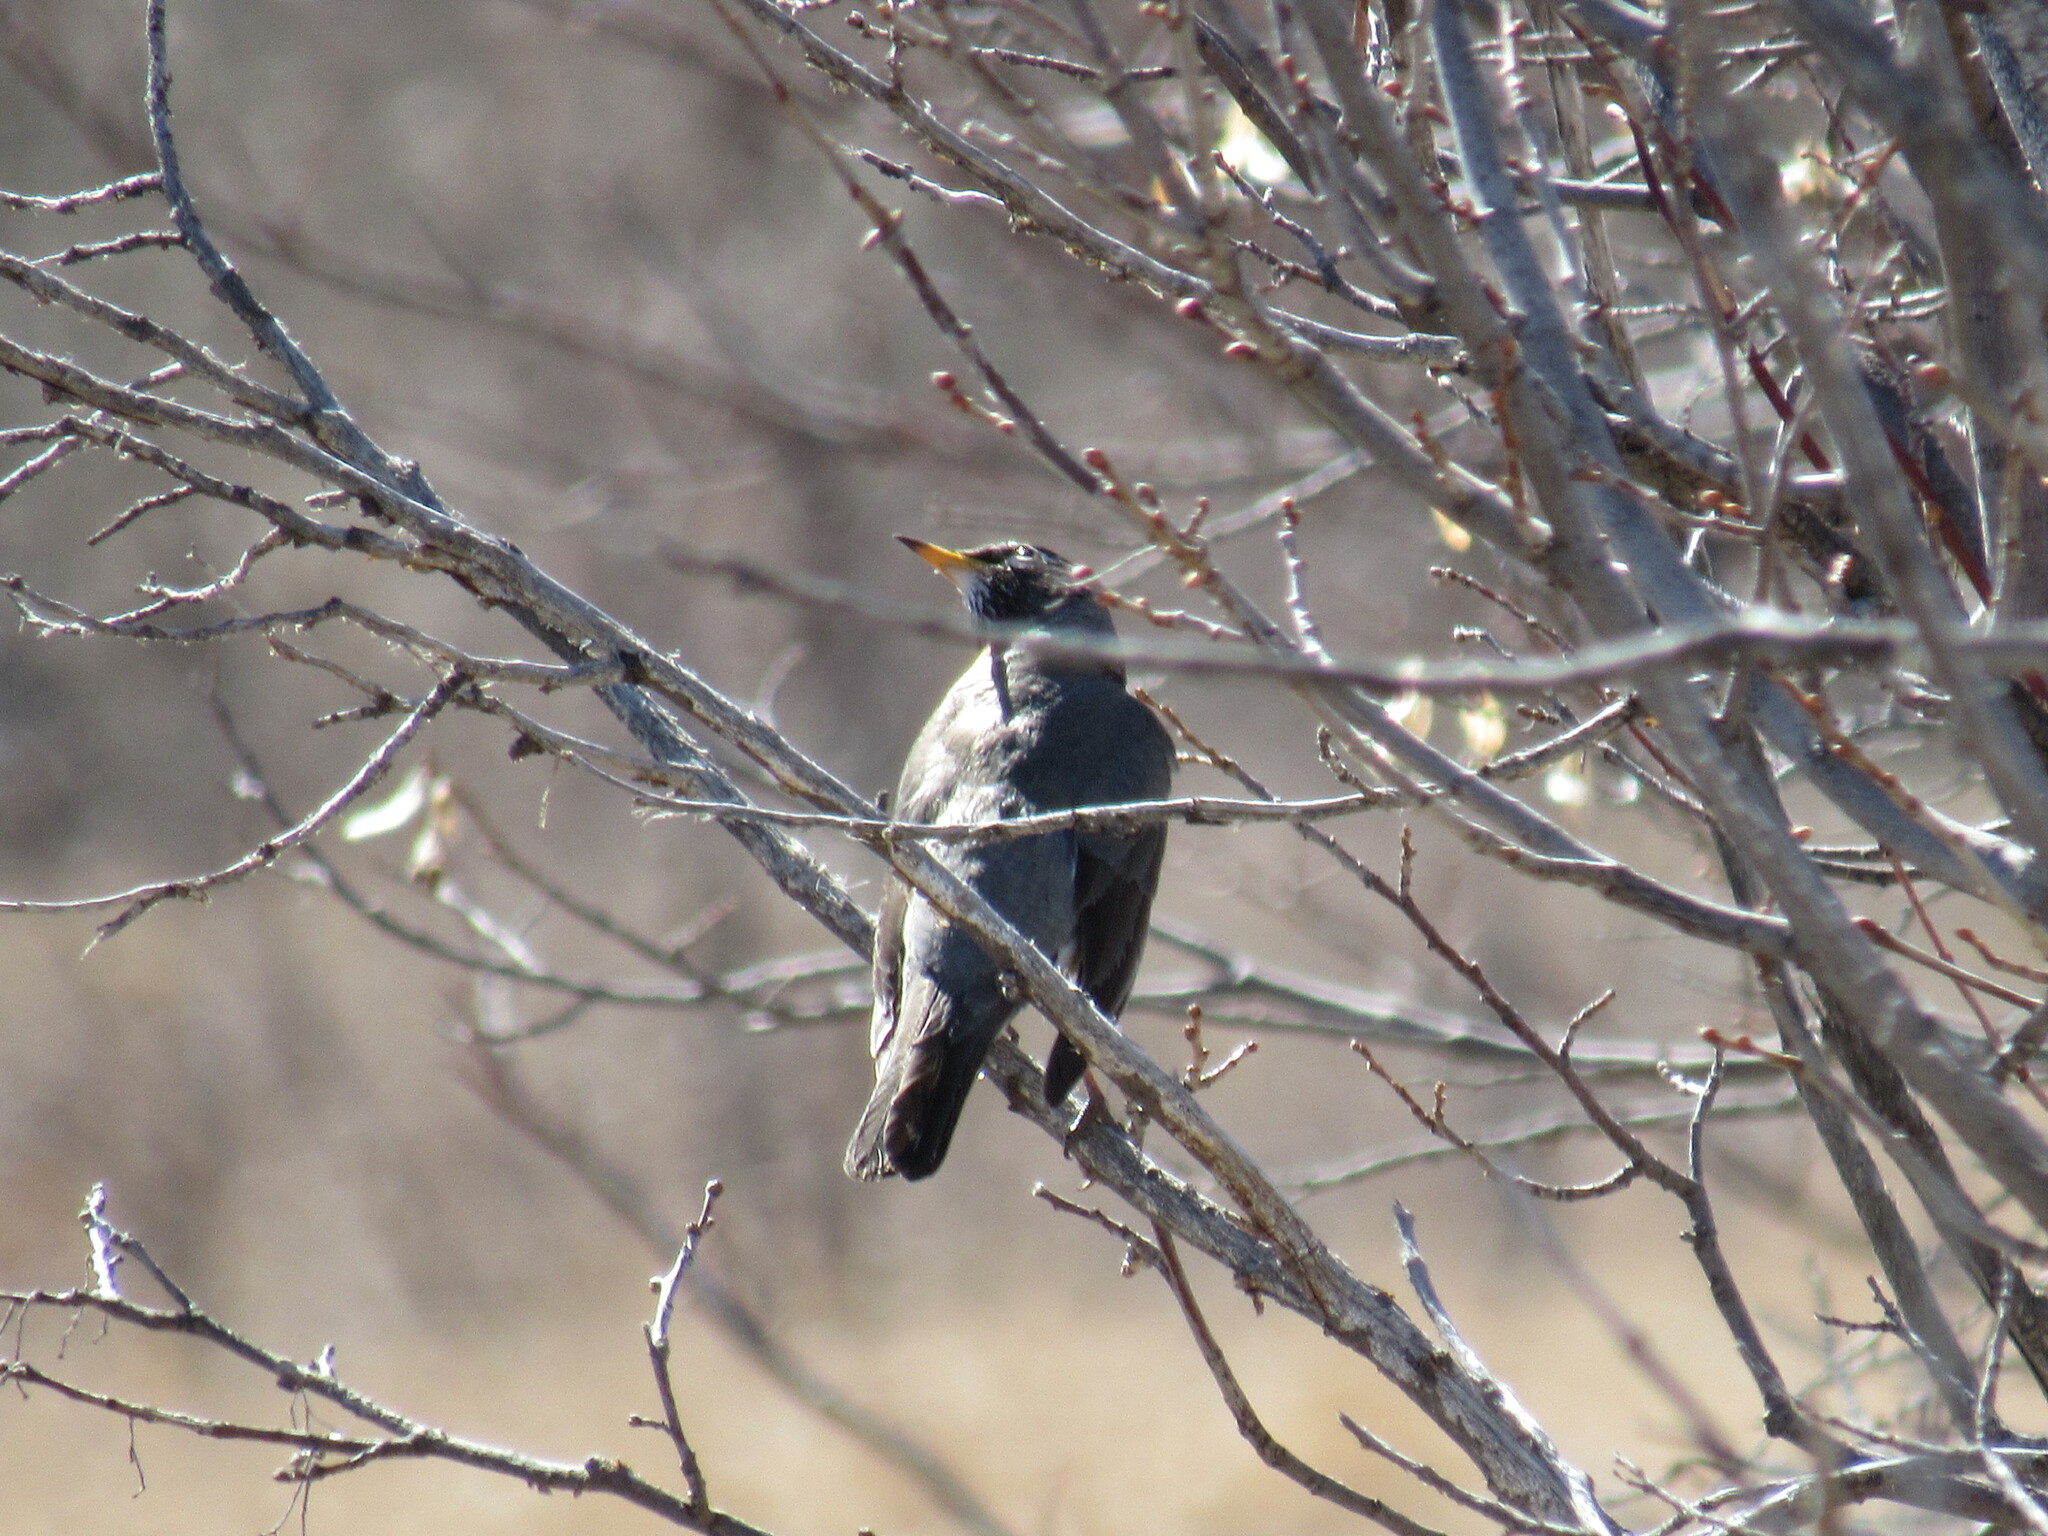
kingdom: Animalia
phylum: Chordata
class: Aves
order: Passeriformes
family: Turdidae
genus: Turdus
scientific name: Turdus migratorius
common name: American robin
